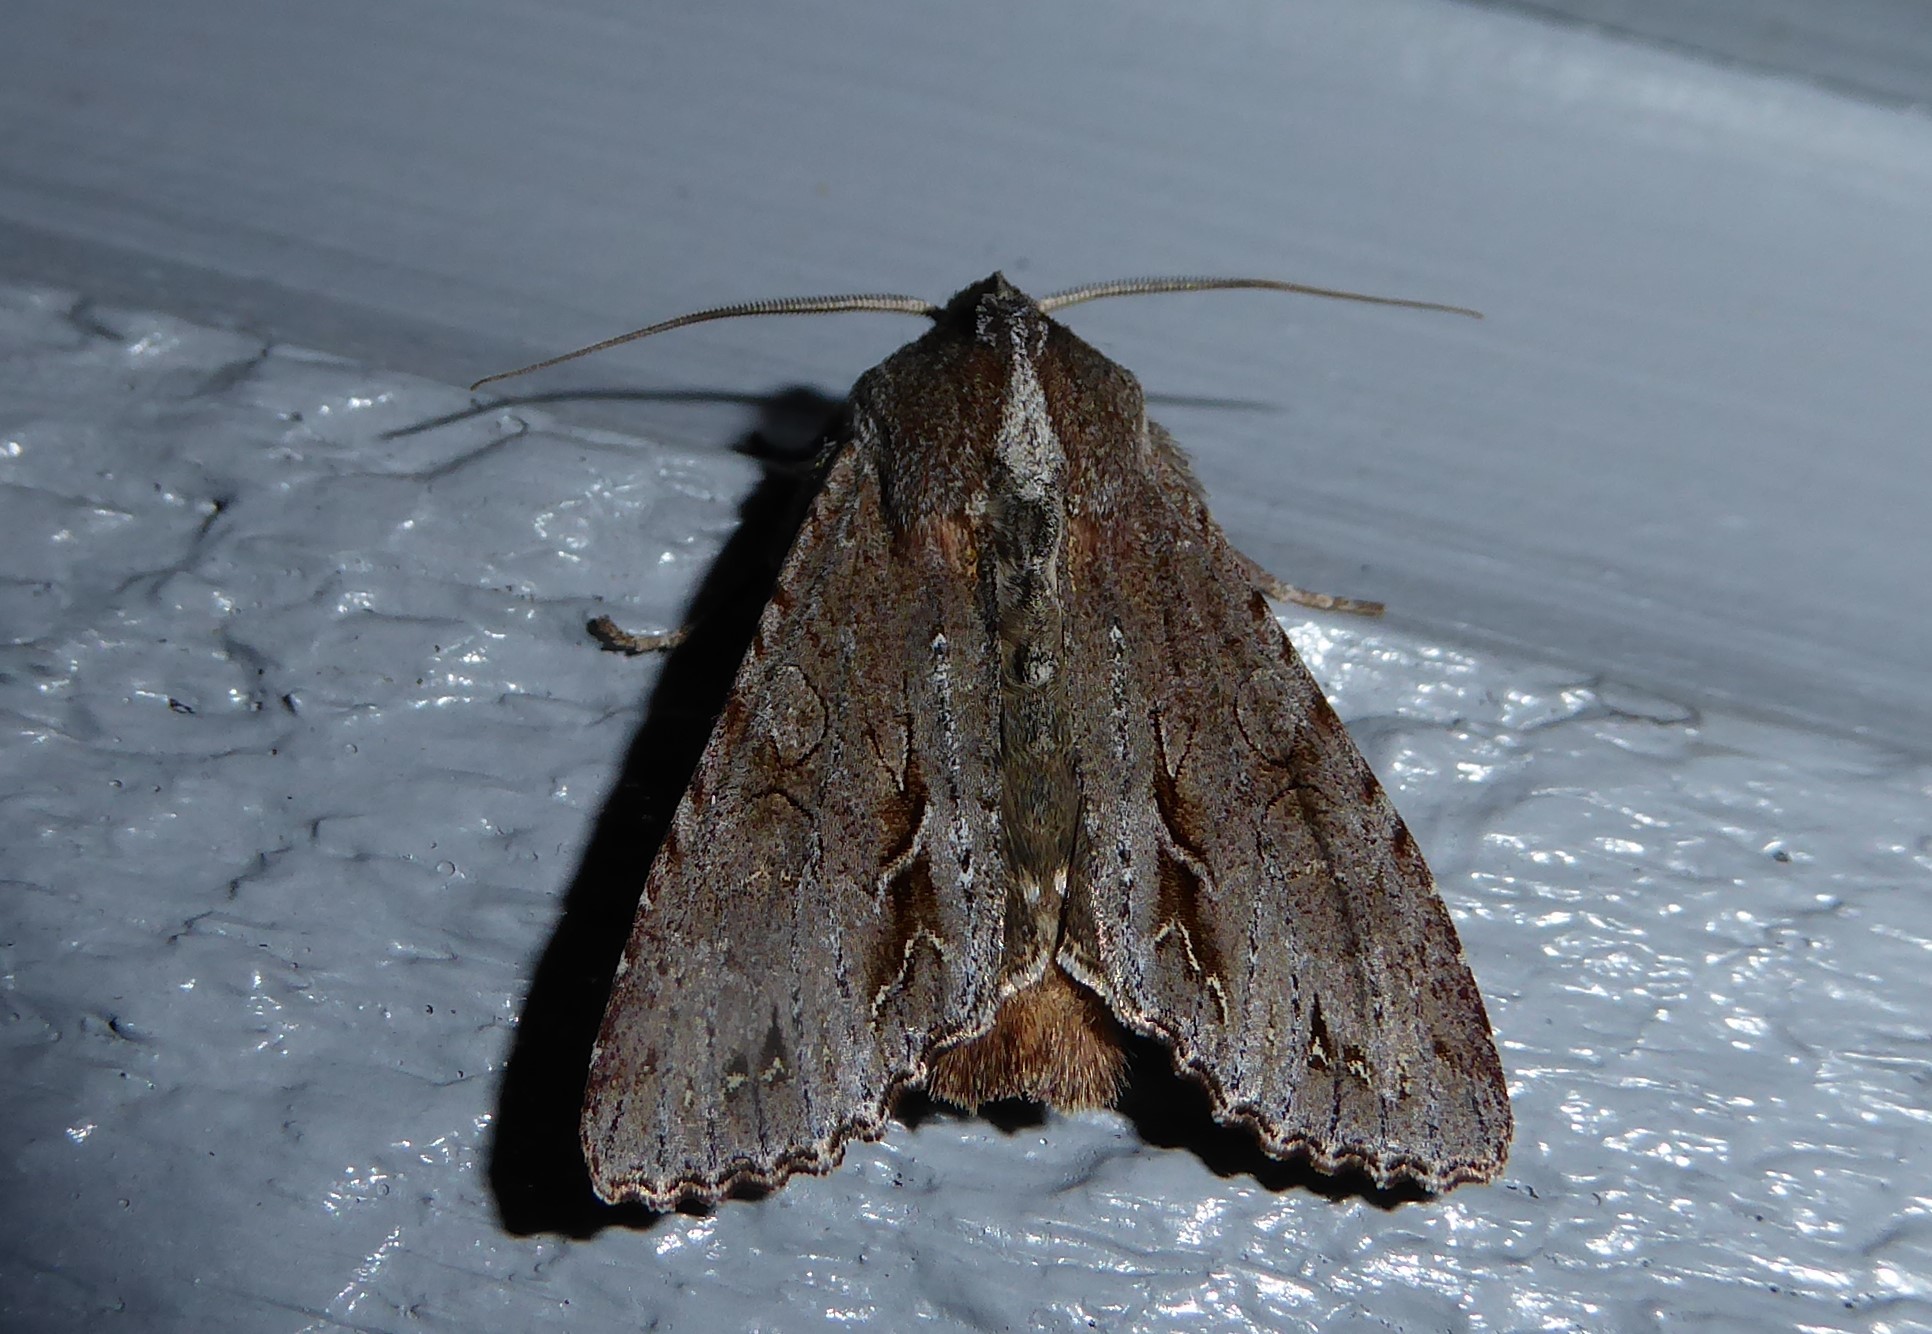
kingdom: Animalia
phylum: Arthropoda
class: Insecta
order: Lepidoptera
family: Noctuidae
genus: Ichneutica
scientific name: Ichneutica
